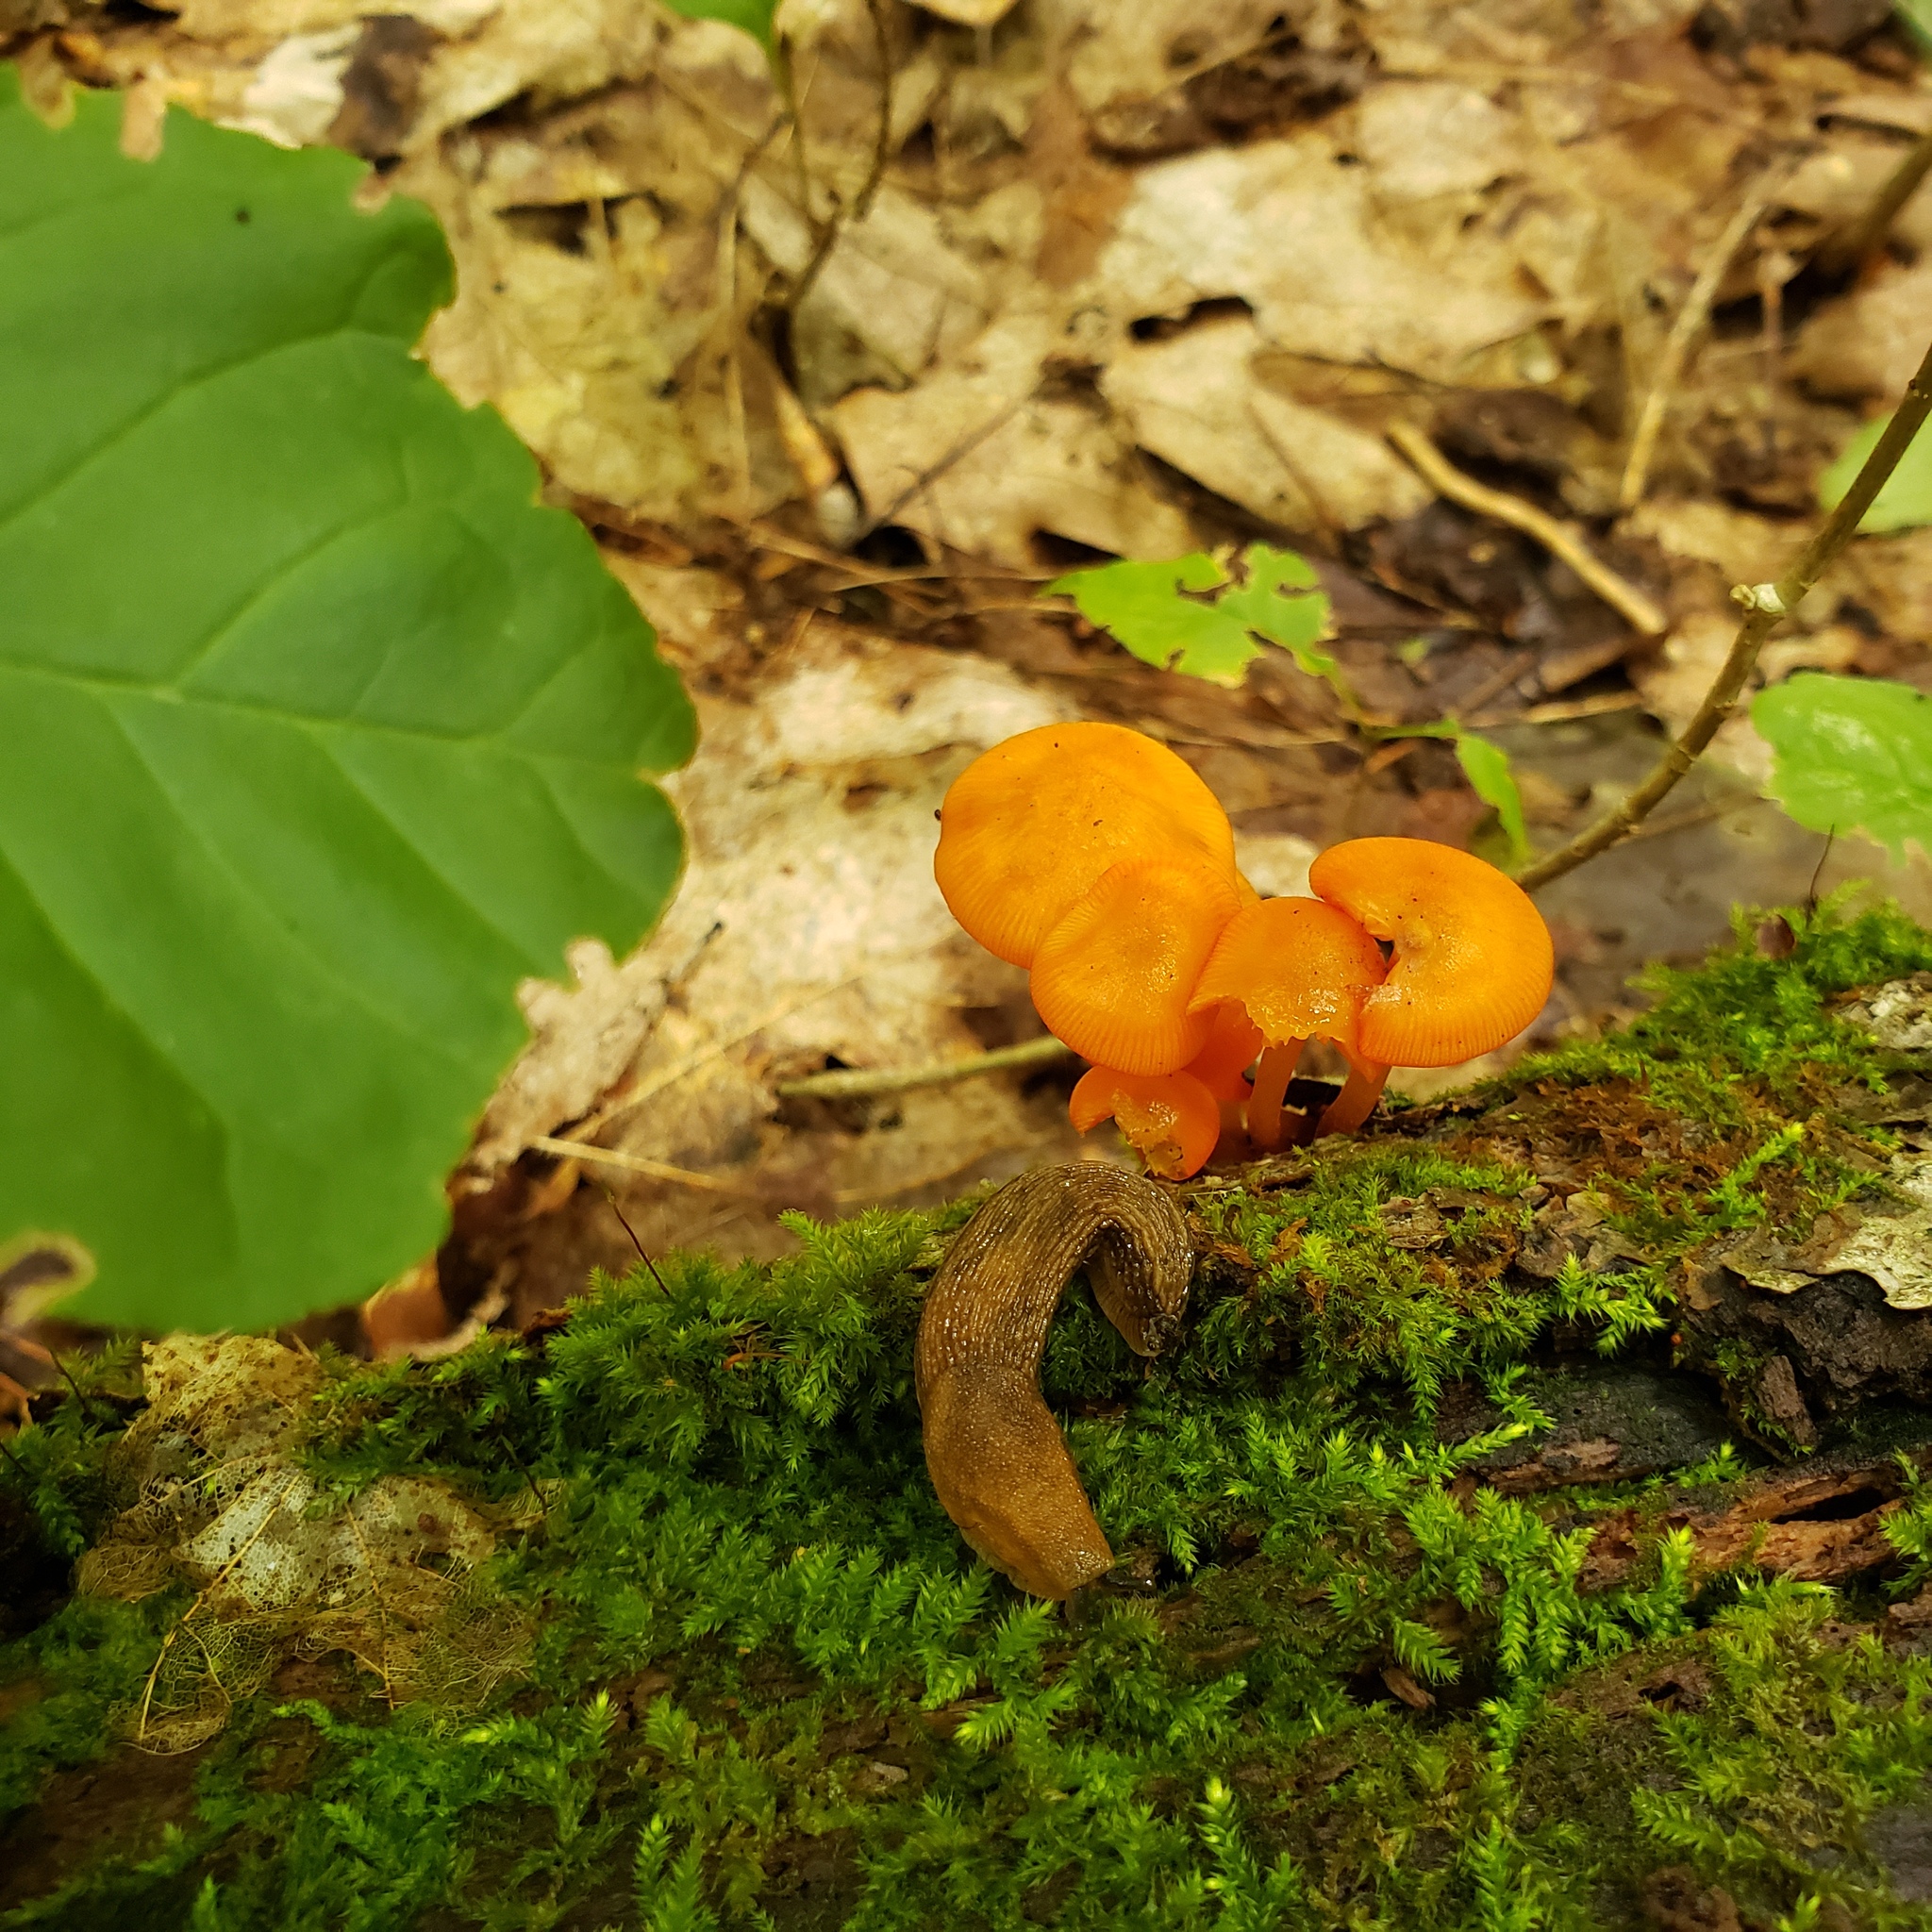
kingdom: Fungi
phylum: Basidiomycota
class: Agaricomycetes
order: Agaricales
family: Mycenaceae
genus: Mycena
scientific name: Mycena leaiana
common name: Orange mycena
